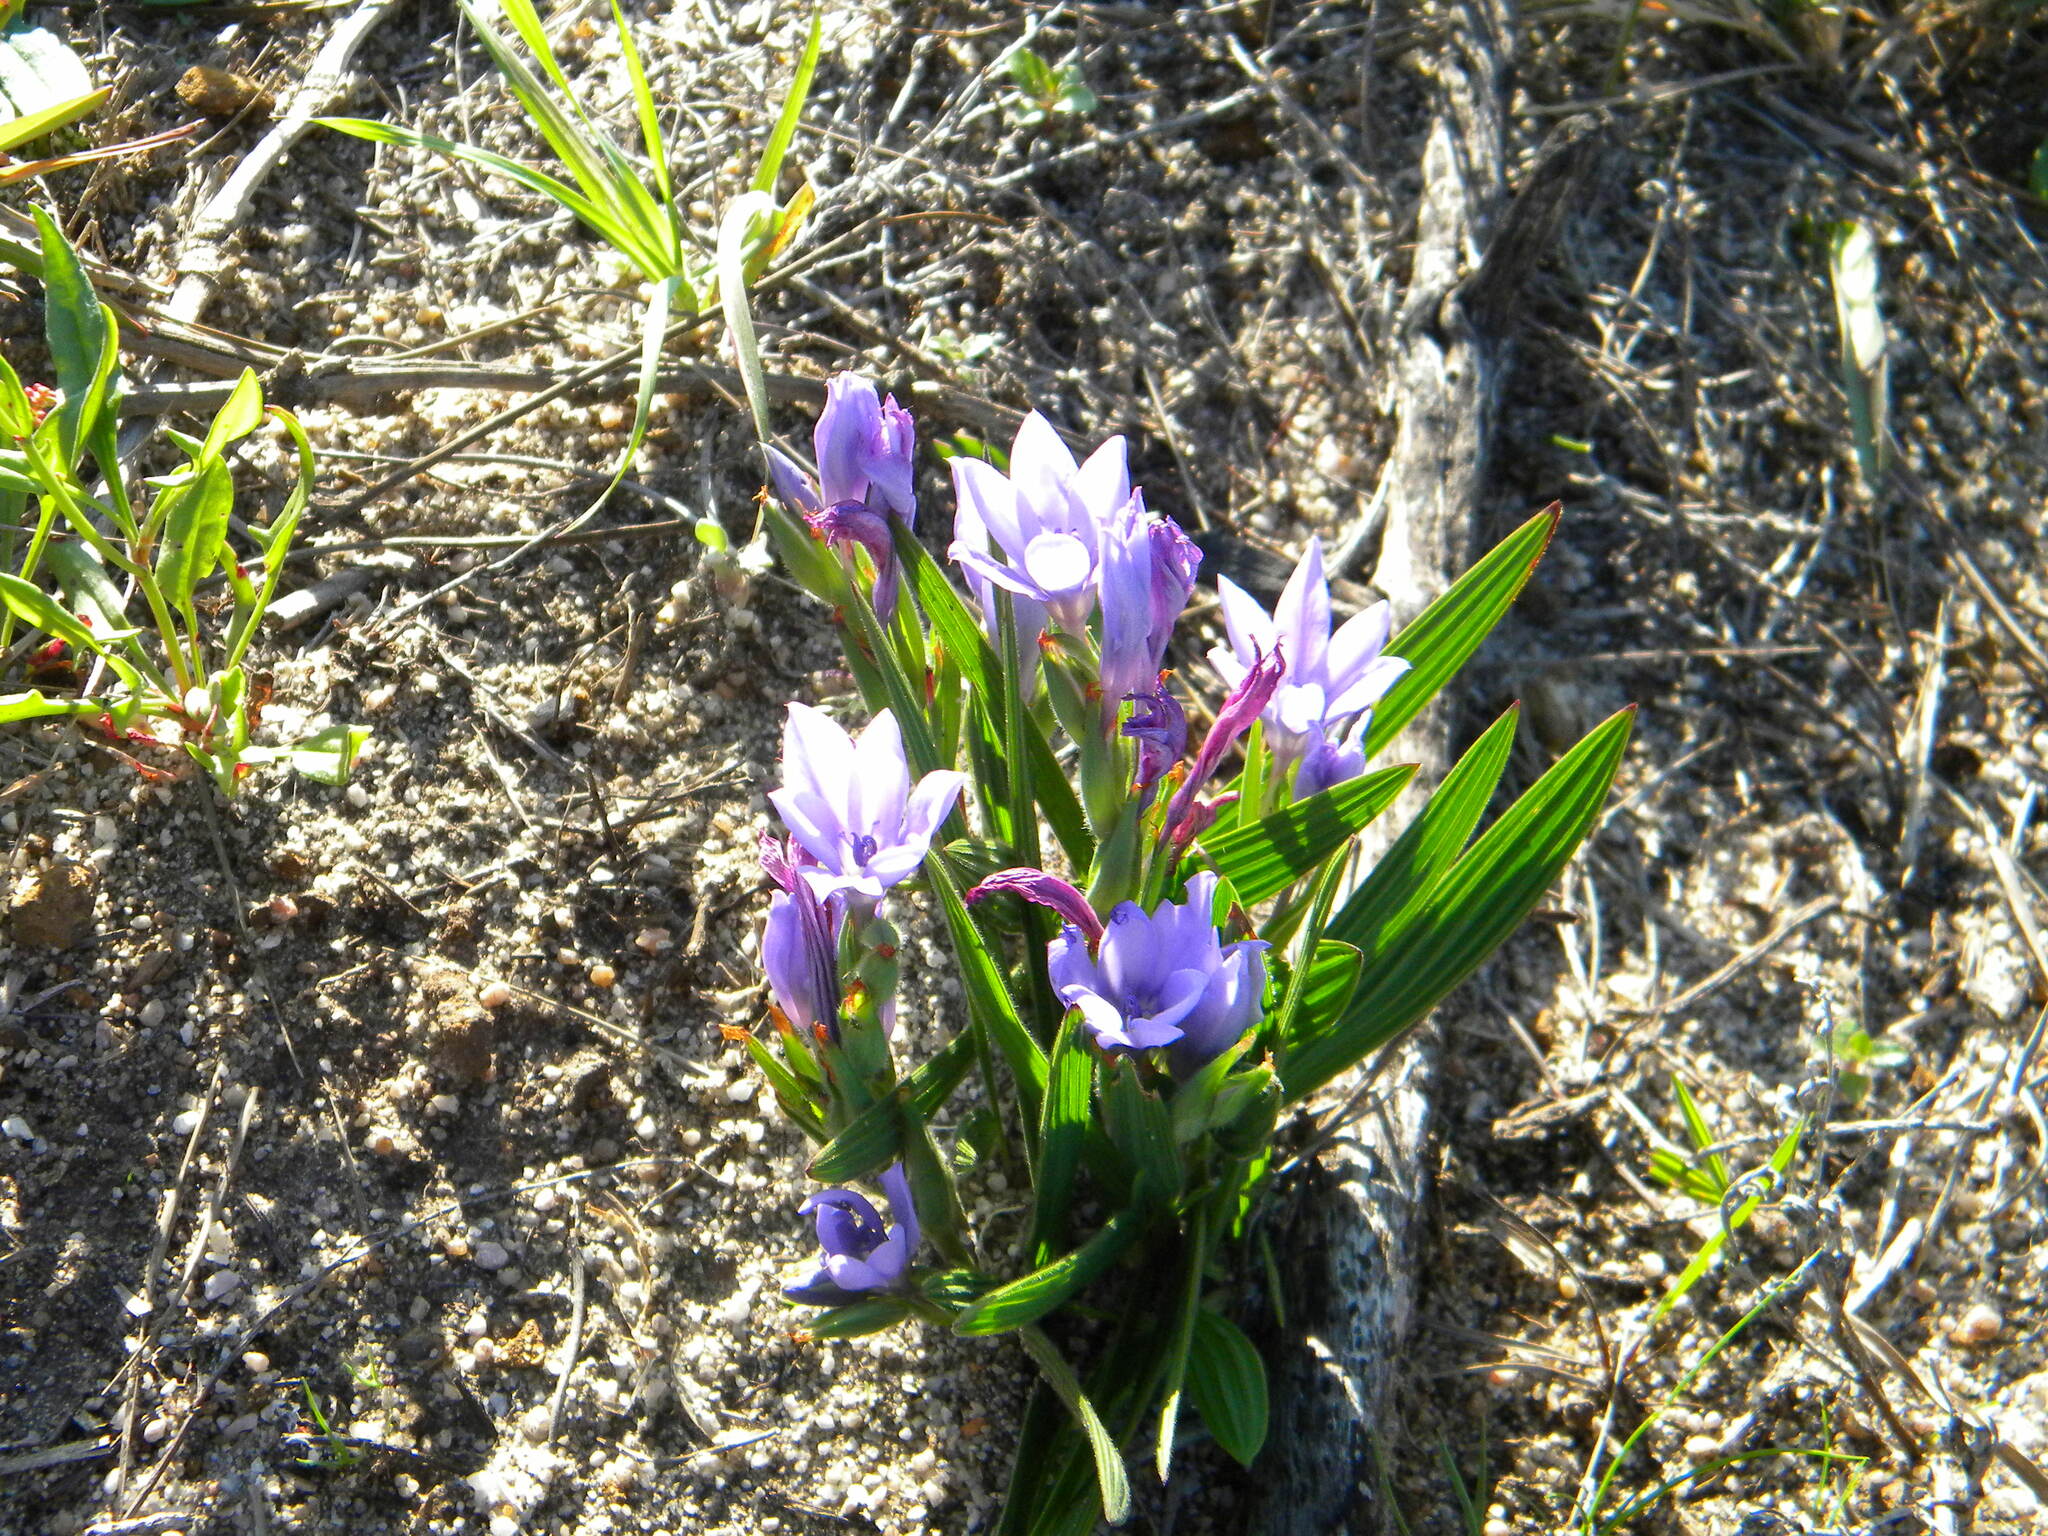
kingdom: Plantae
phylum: Tracheophyta
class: Liliopsida
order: Asparagales
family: Iridaceae
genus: Babiana
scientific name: Babiana villosula
